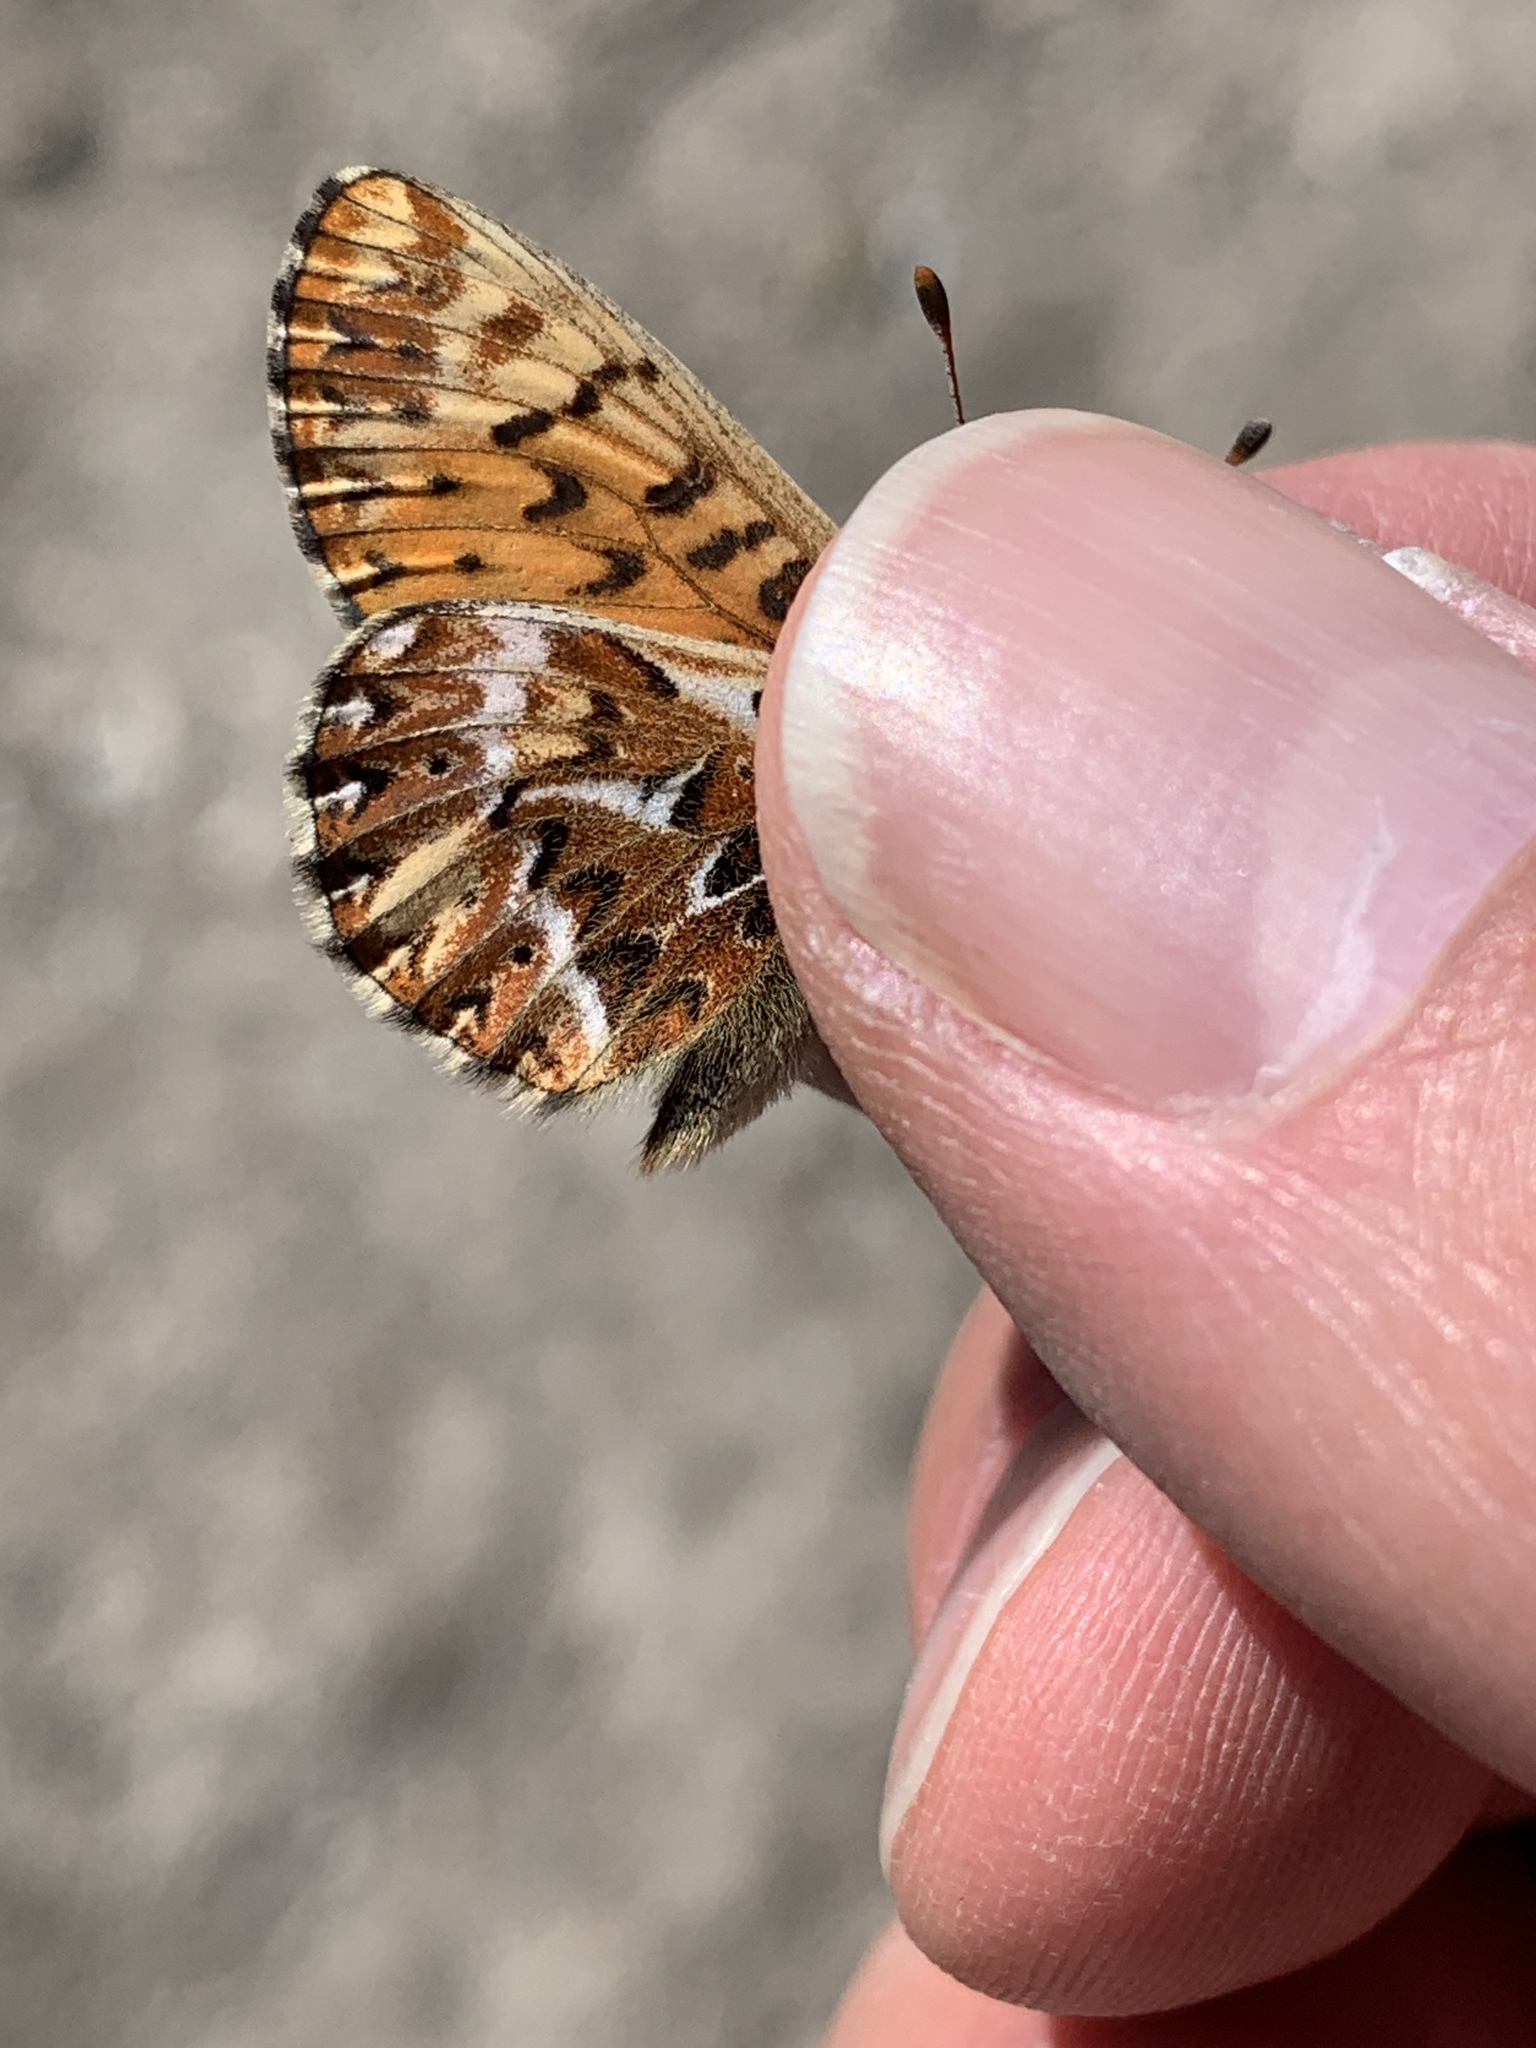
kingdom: Animalia
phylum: Arthropoda
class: Insecta
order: Lepidoptera
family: Nymphalidae
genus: Boloria
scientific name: Boloria freija
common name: Freija fritillary
